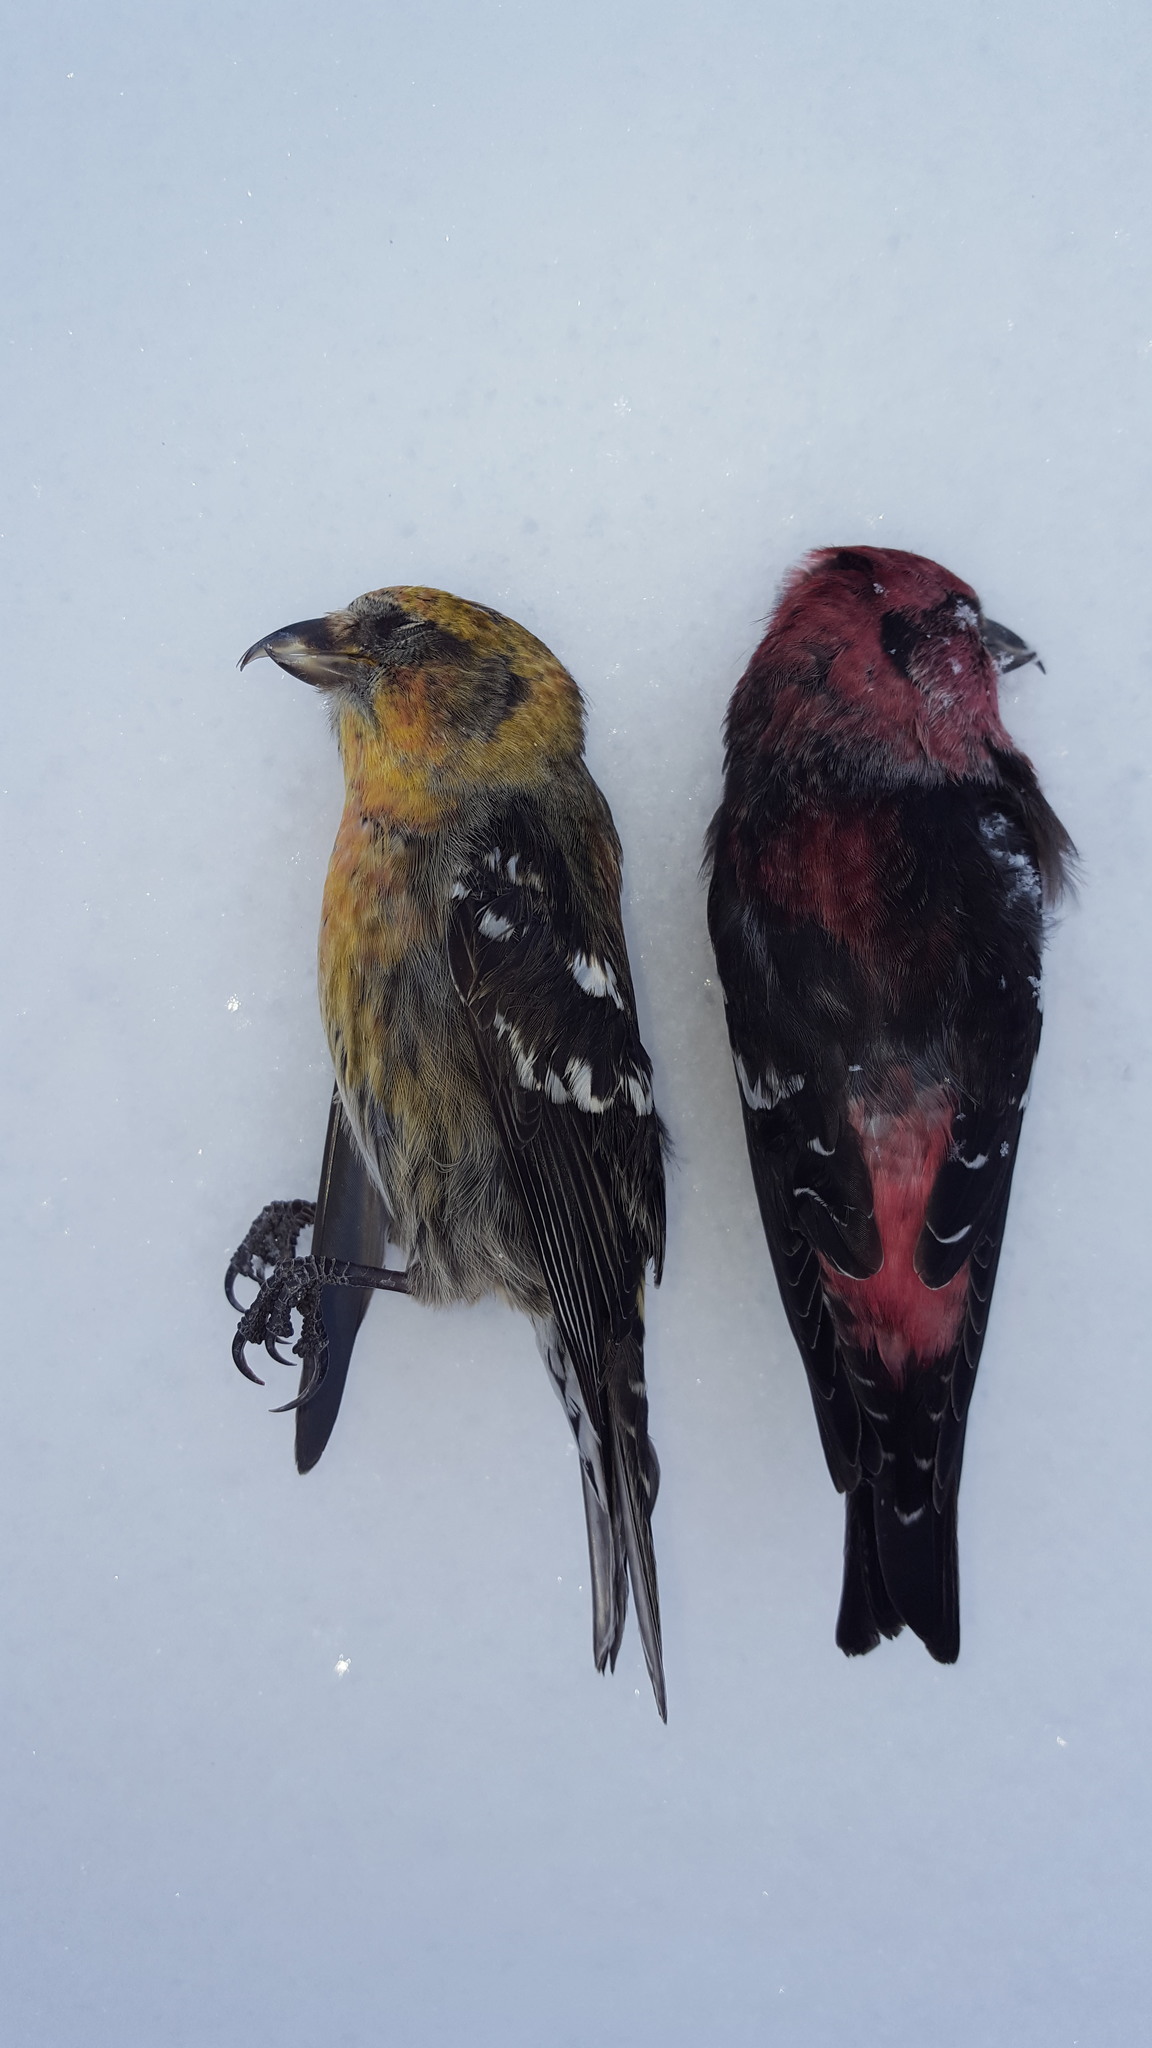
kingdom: Animalia
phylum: Chordata
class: Aves
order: Passeriformes
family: Fringillidae
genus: Loxia
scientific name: Loxia leucoptera
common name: Two-barred crossbill
